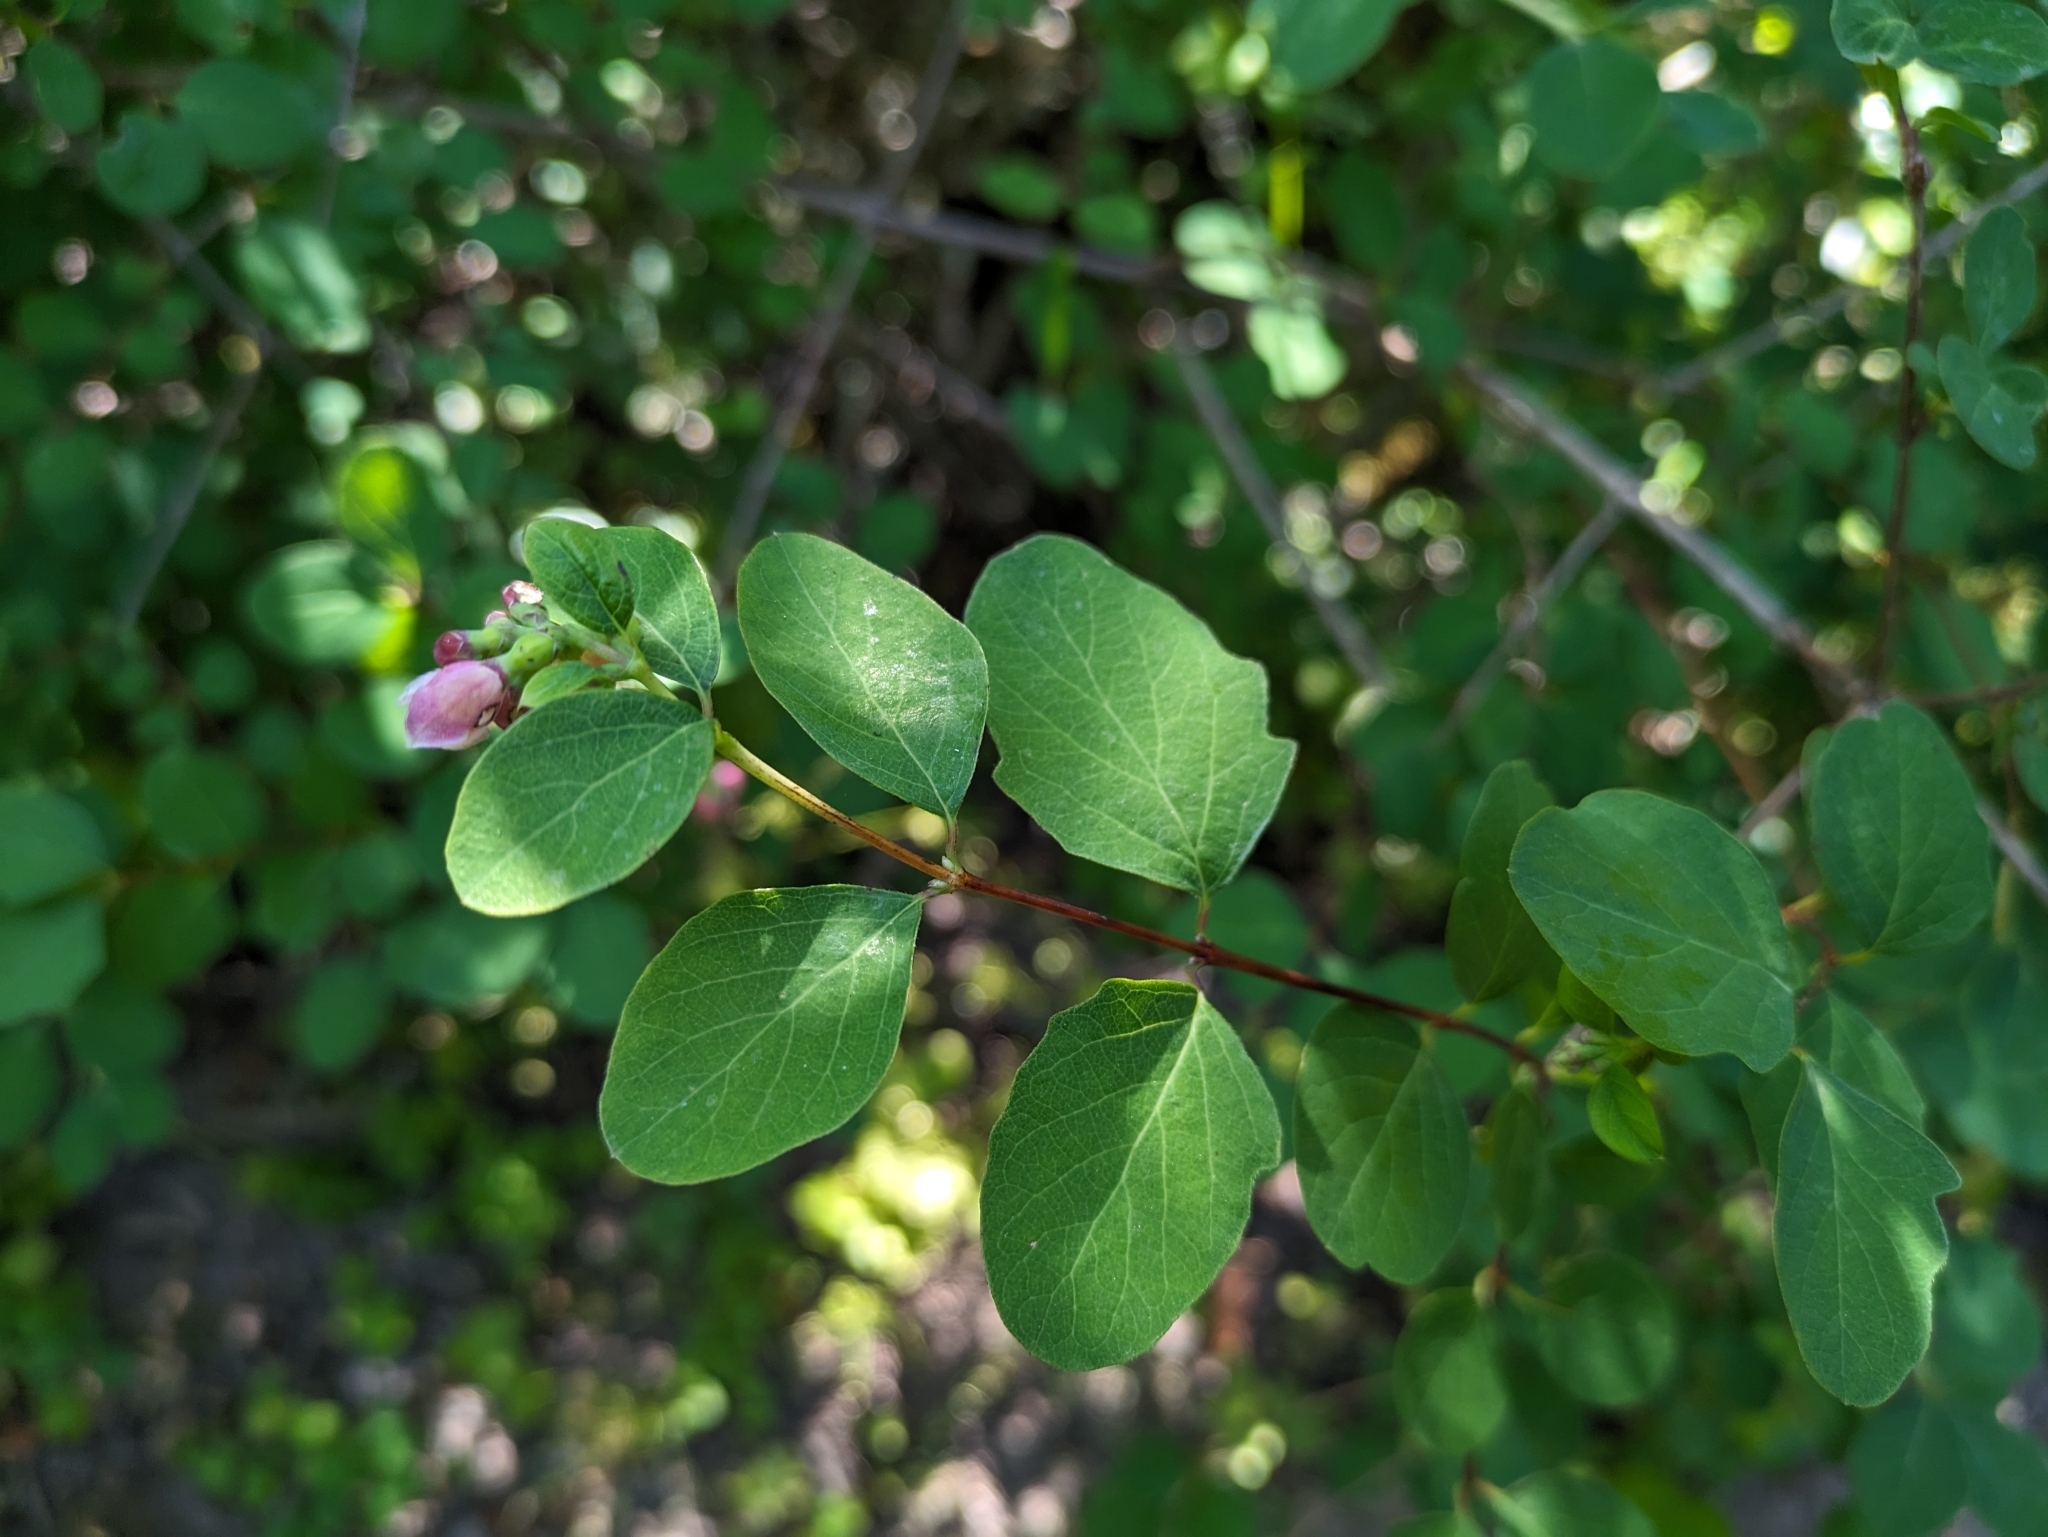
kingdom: Plantae
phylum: Tracheophyta
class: Magnoliopsida
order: Dipsacales
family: Caprifoliaceae
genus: Symphoricarpos
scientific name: Symphoricarpos albus
